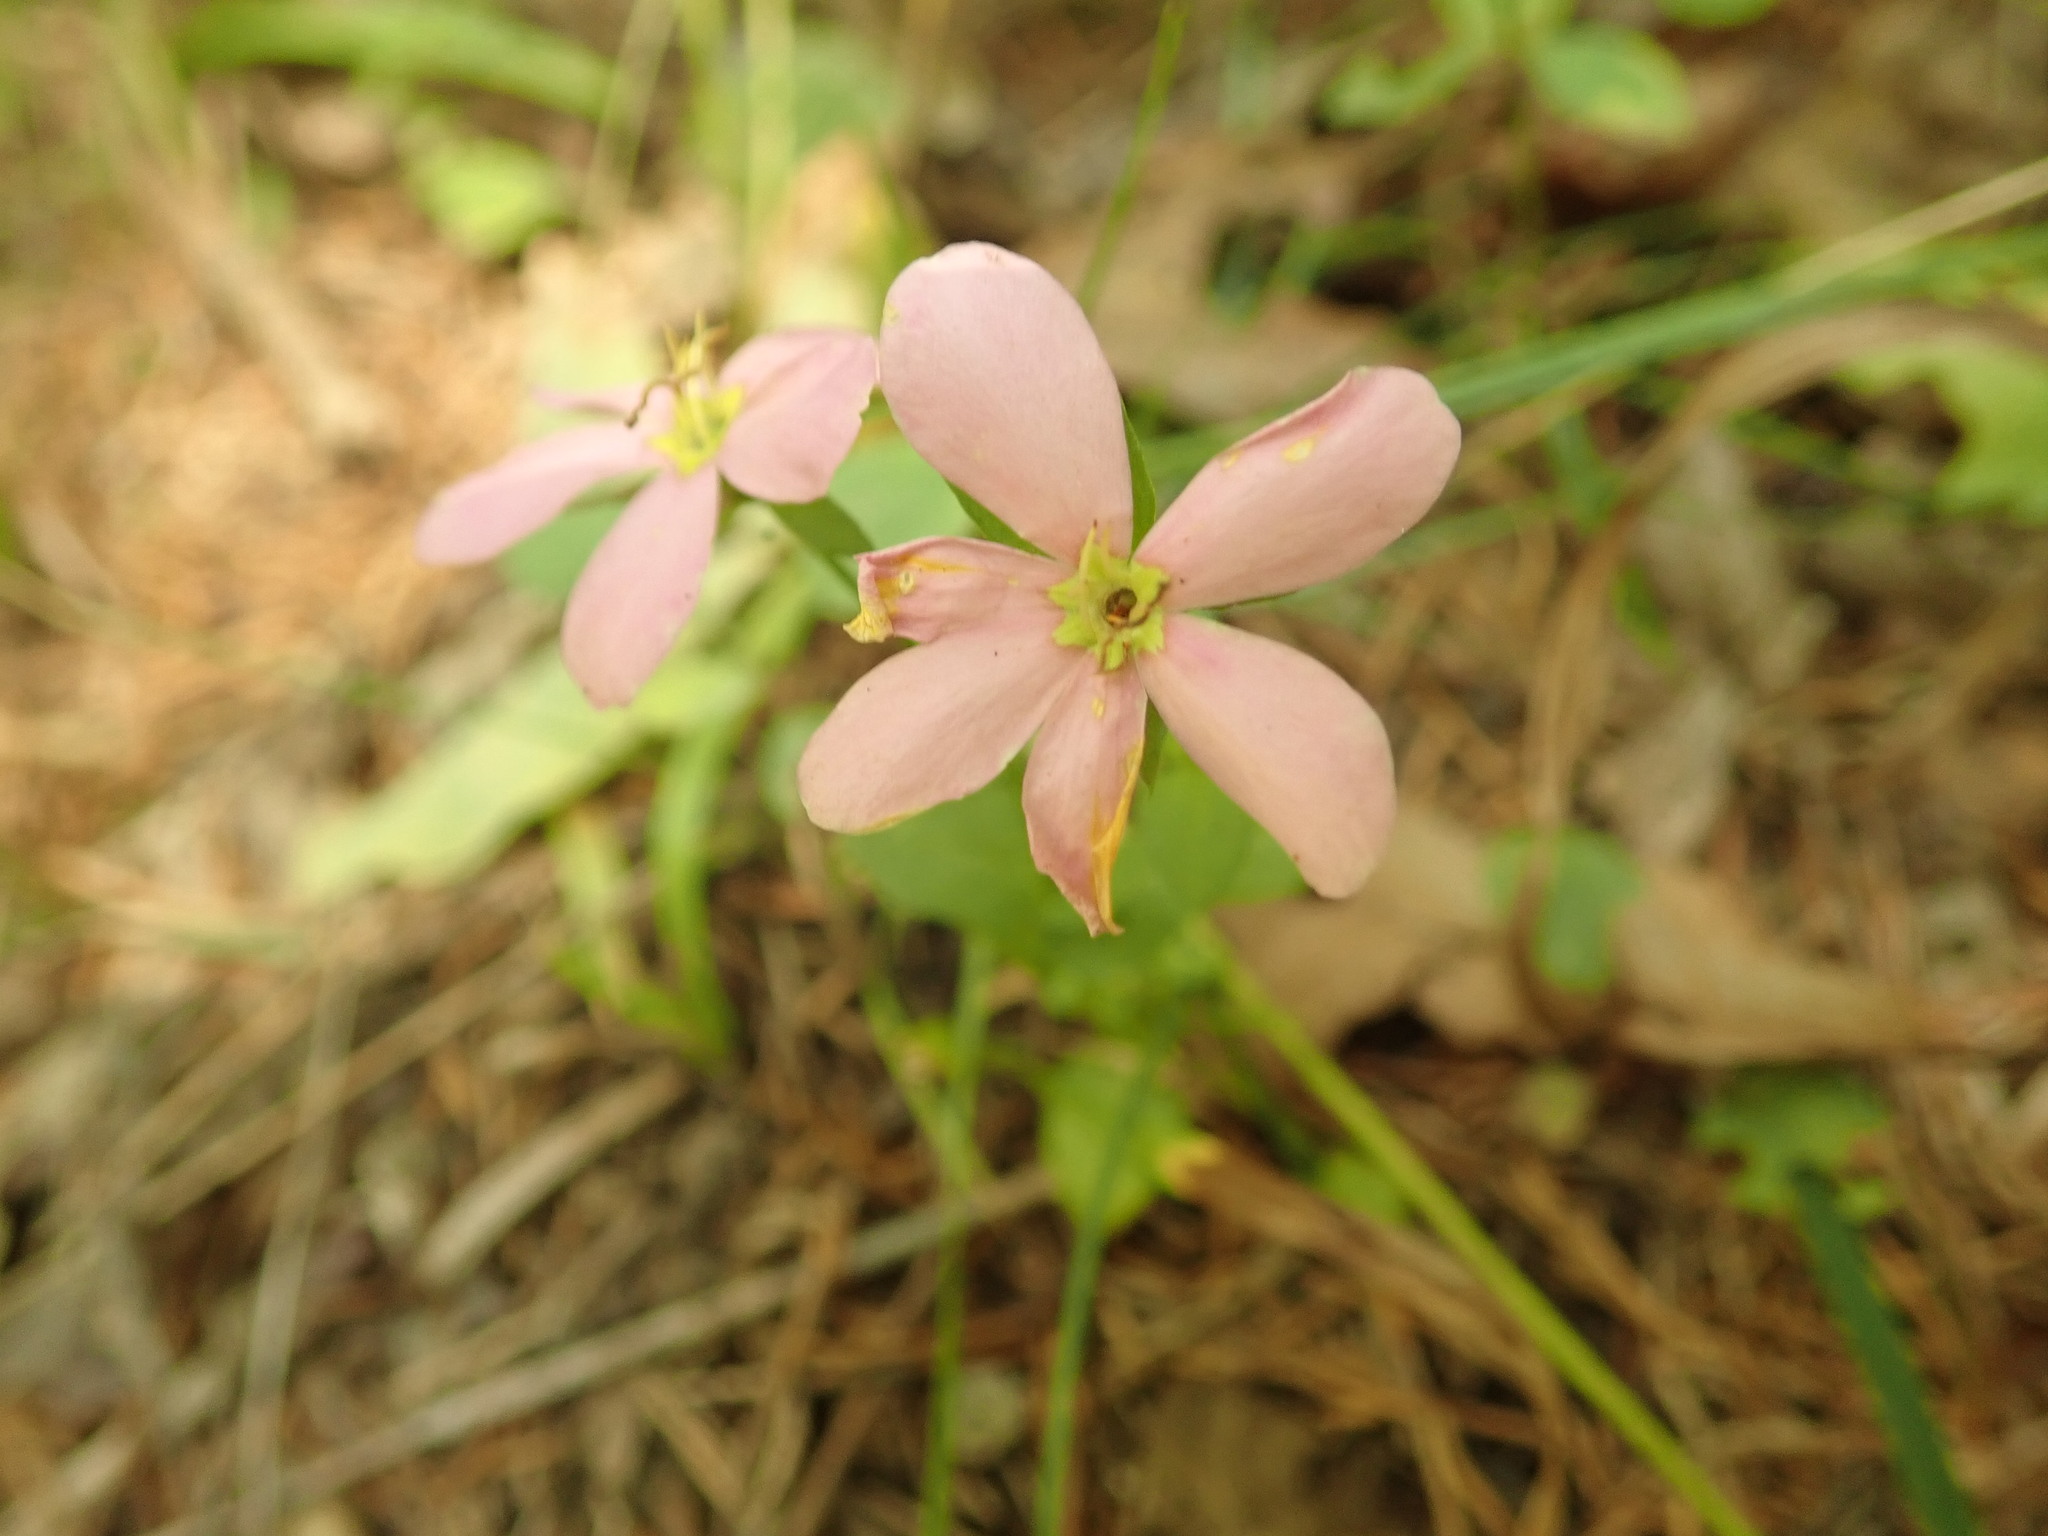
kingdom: Plantae
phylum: Tracheophyta
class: Magnoliopsida
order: Gentianales
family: Gentianaceae
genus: Sabatia
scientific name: Sabatia angularis
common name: Rose-pink
